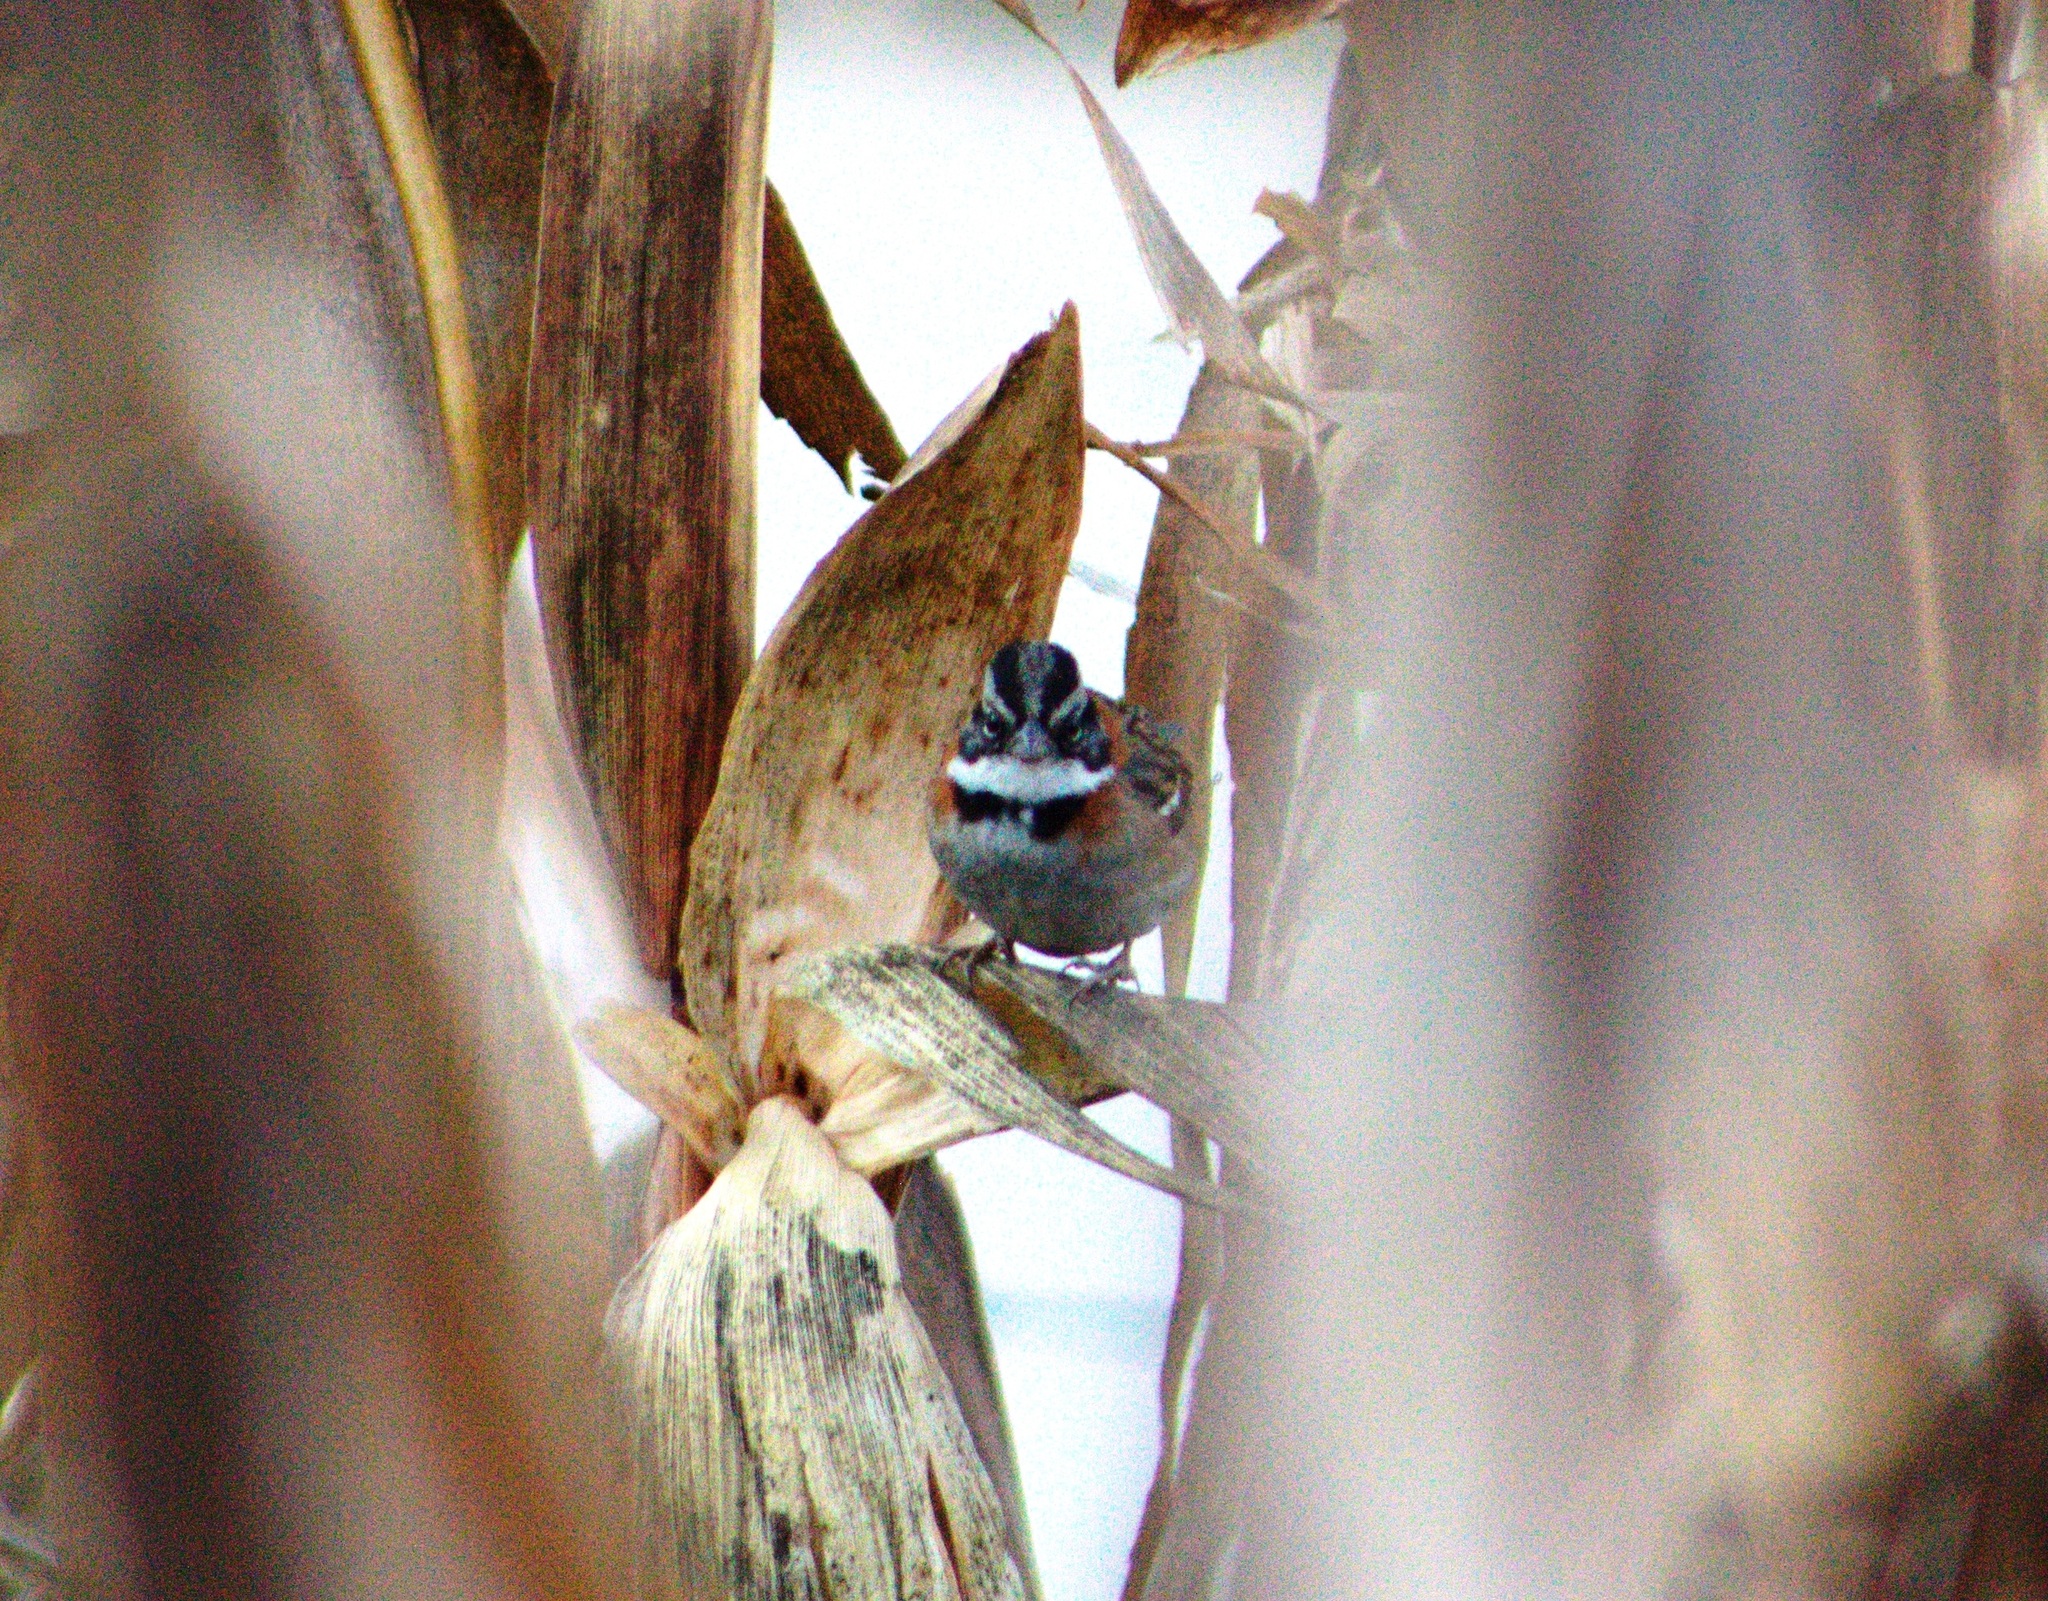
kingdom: Animalia
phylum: Chordata
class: Aves
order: Passeriformes
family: Passerellidae
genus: Zonotrichia
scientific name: Zonotrichia capensis
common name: Rufous-collared sparrow
